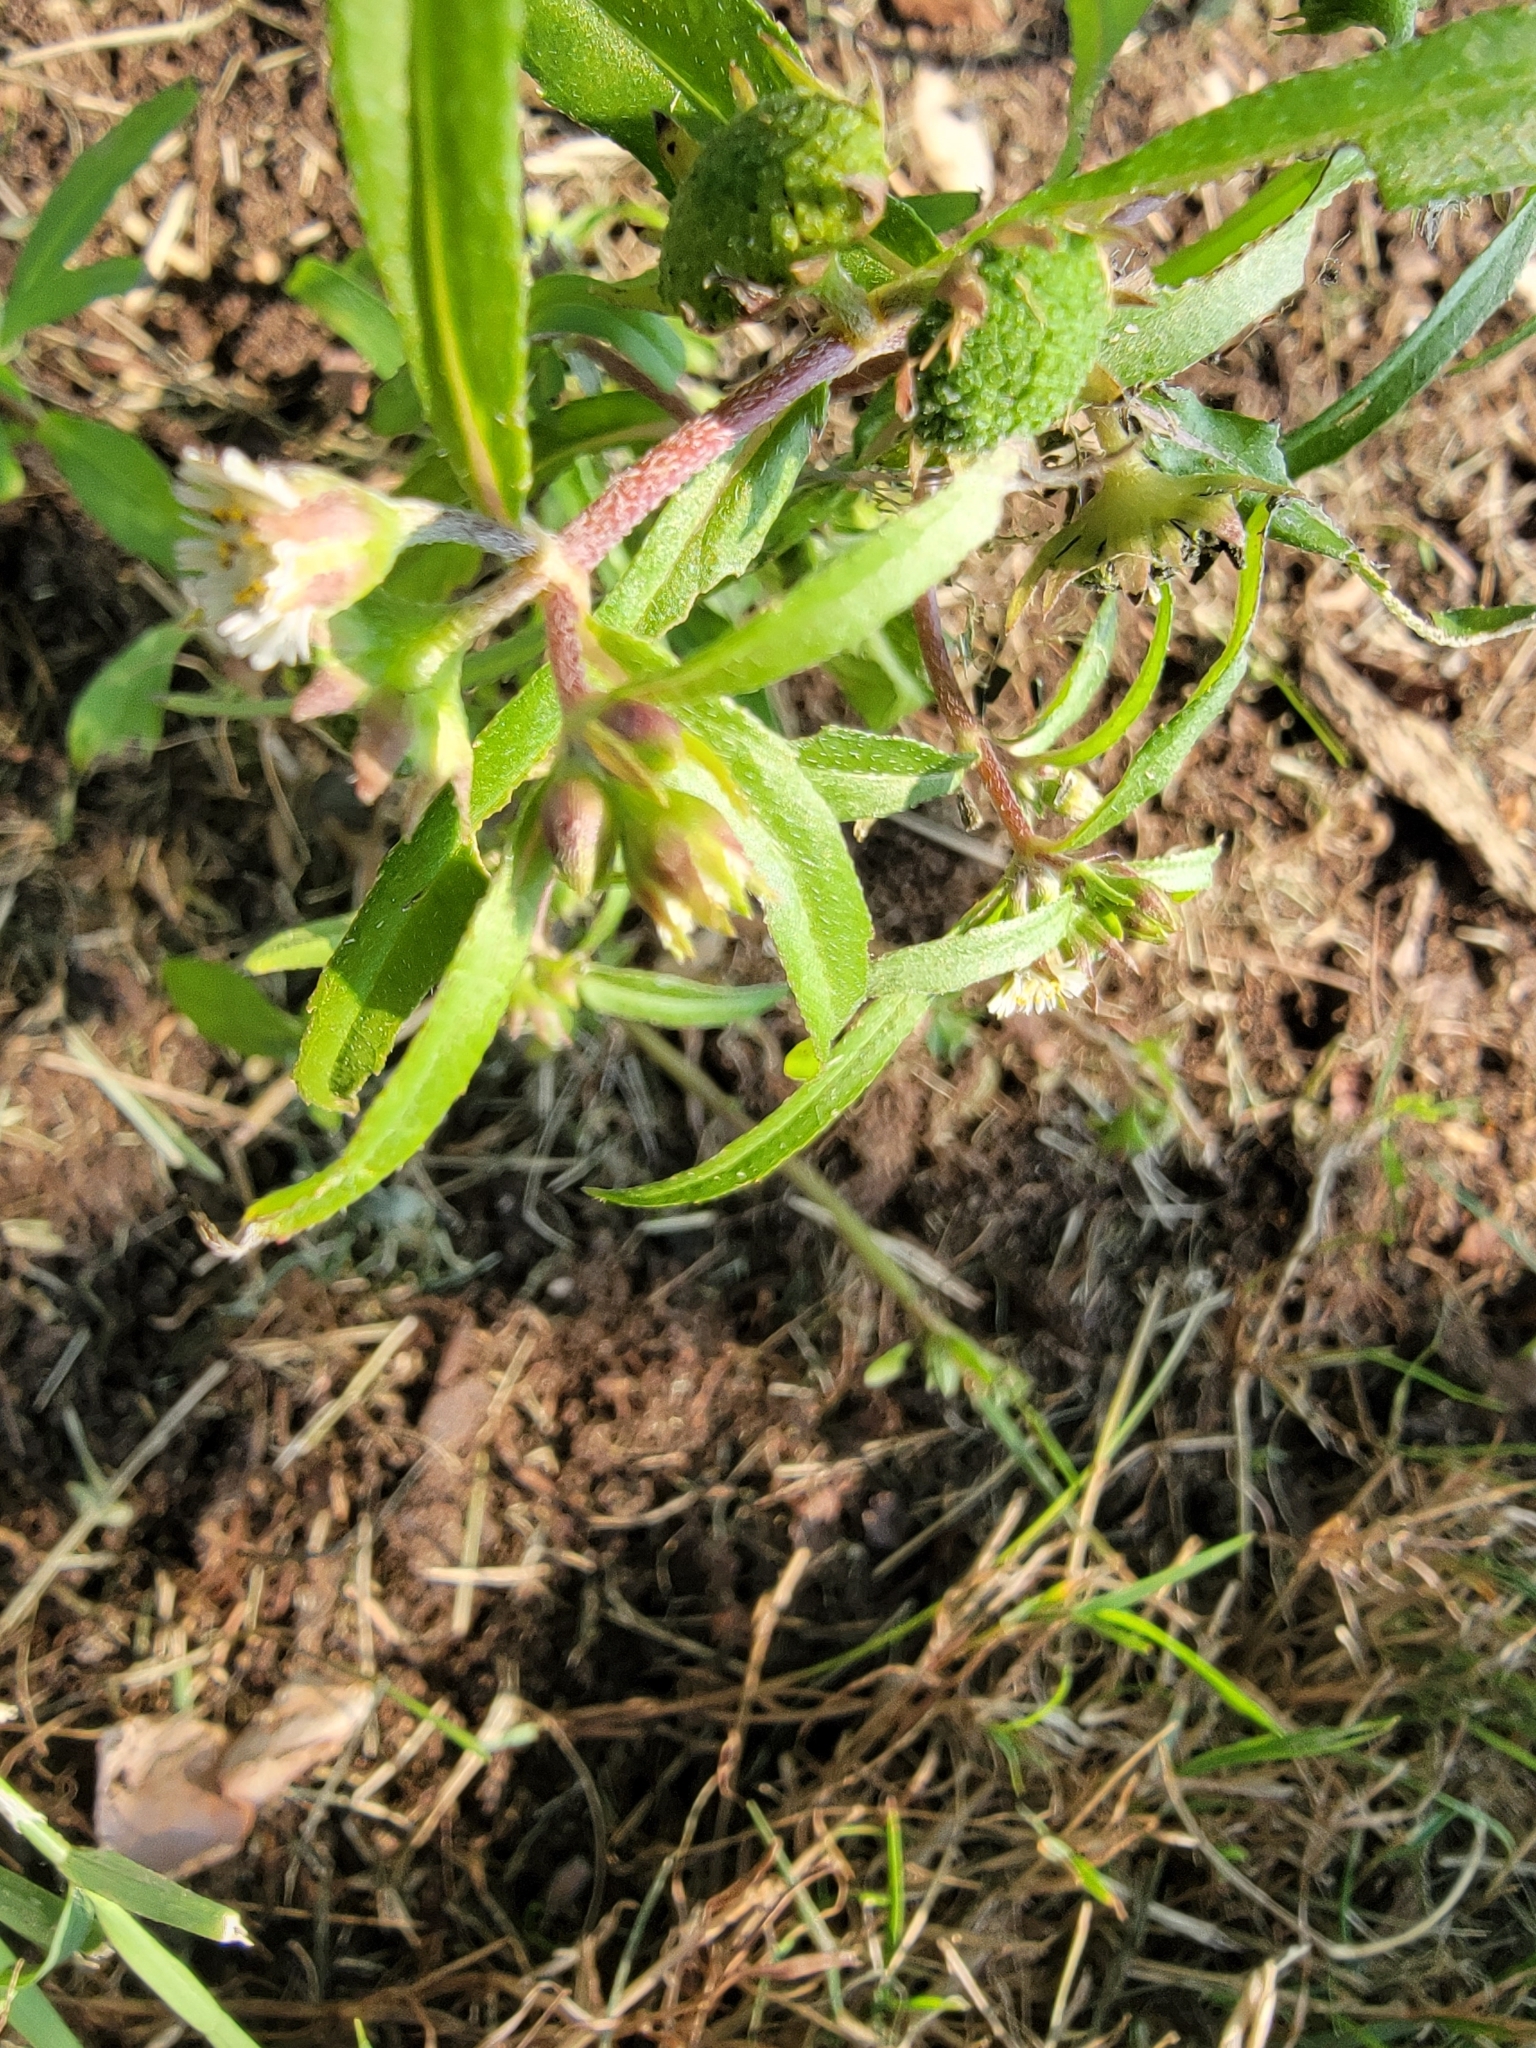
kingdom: Plantae
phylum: Tracheophyta
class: Magnoliopsida
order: Asterales
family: Asteraceae
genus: Eclipta
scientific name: Eclipta prostrata
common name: False daisy
